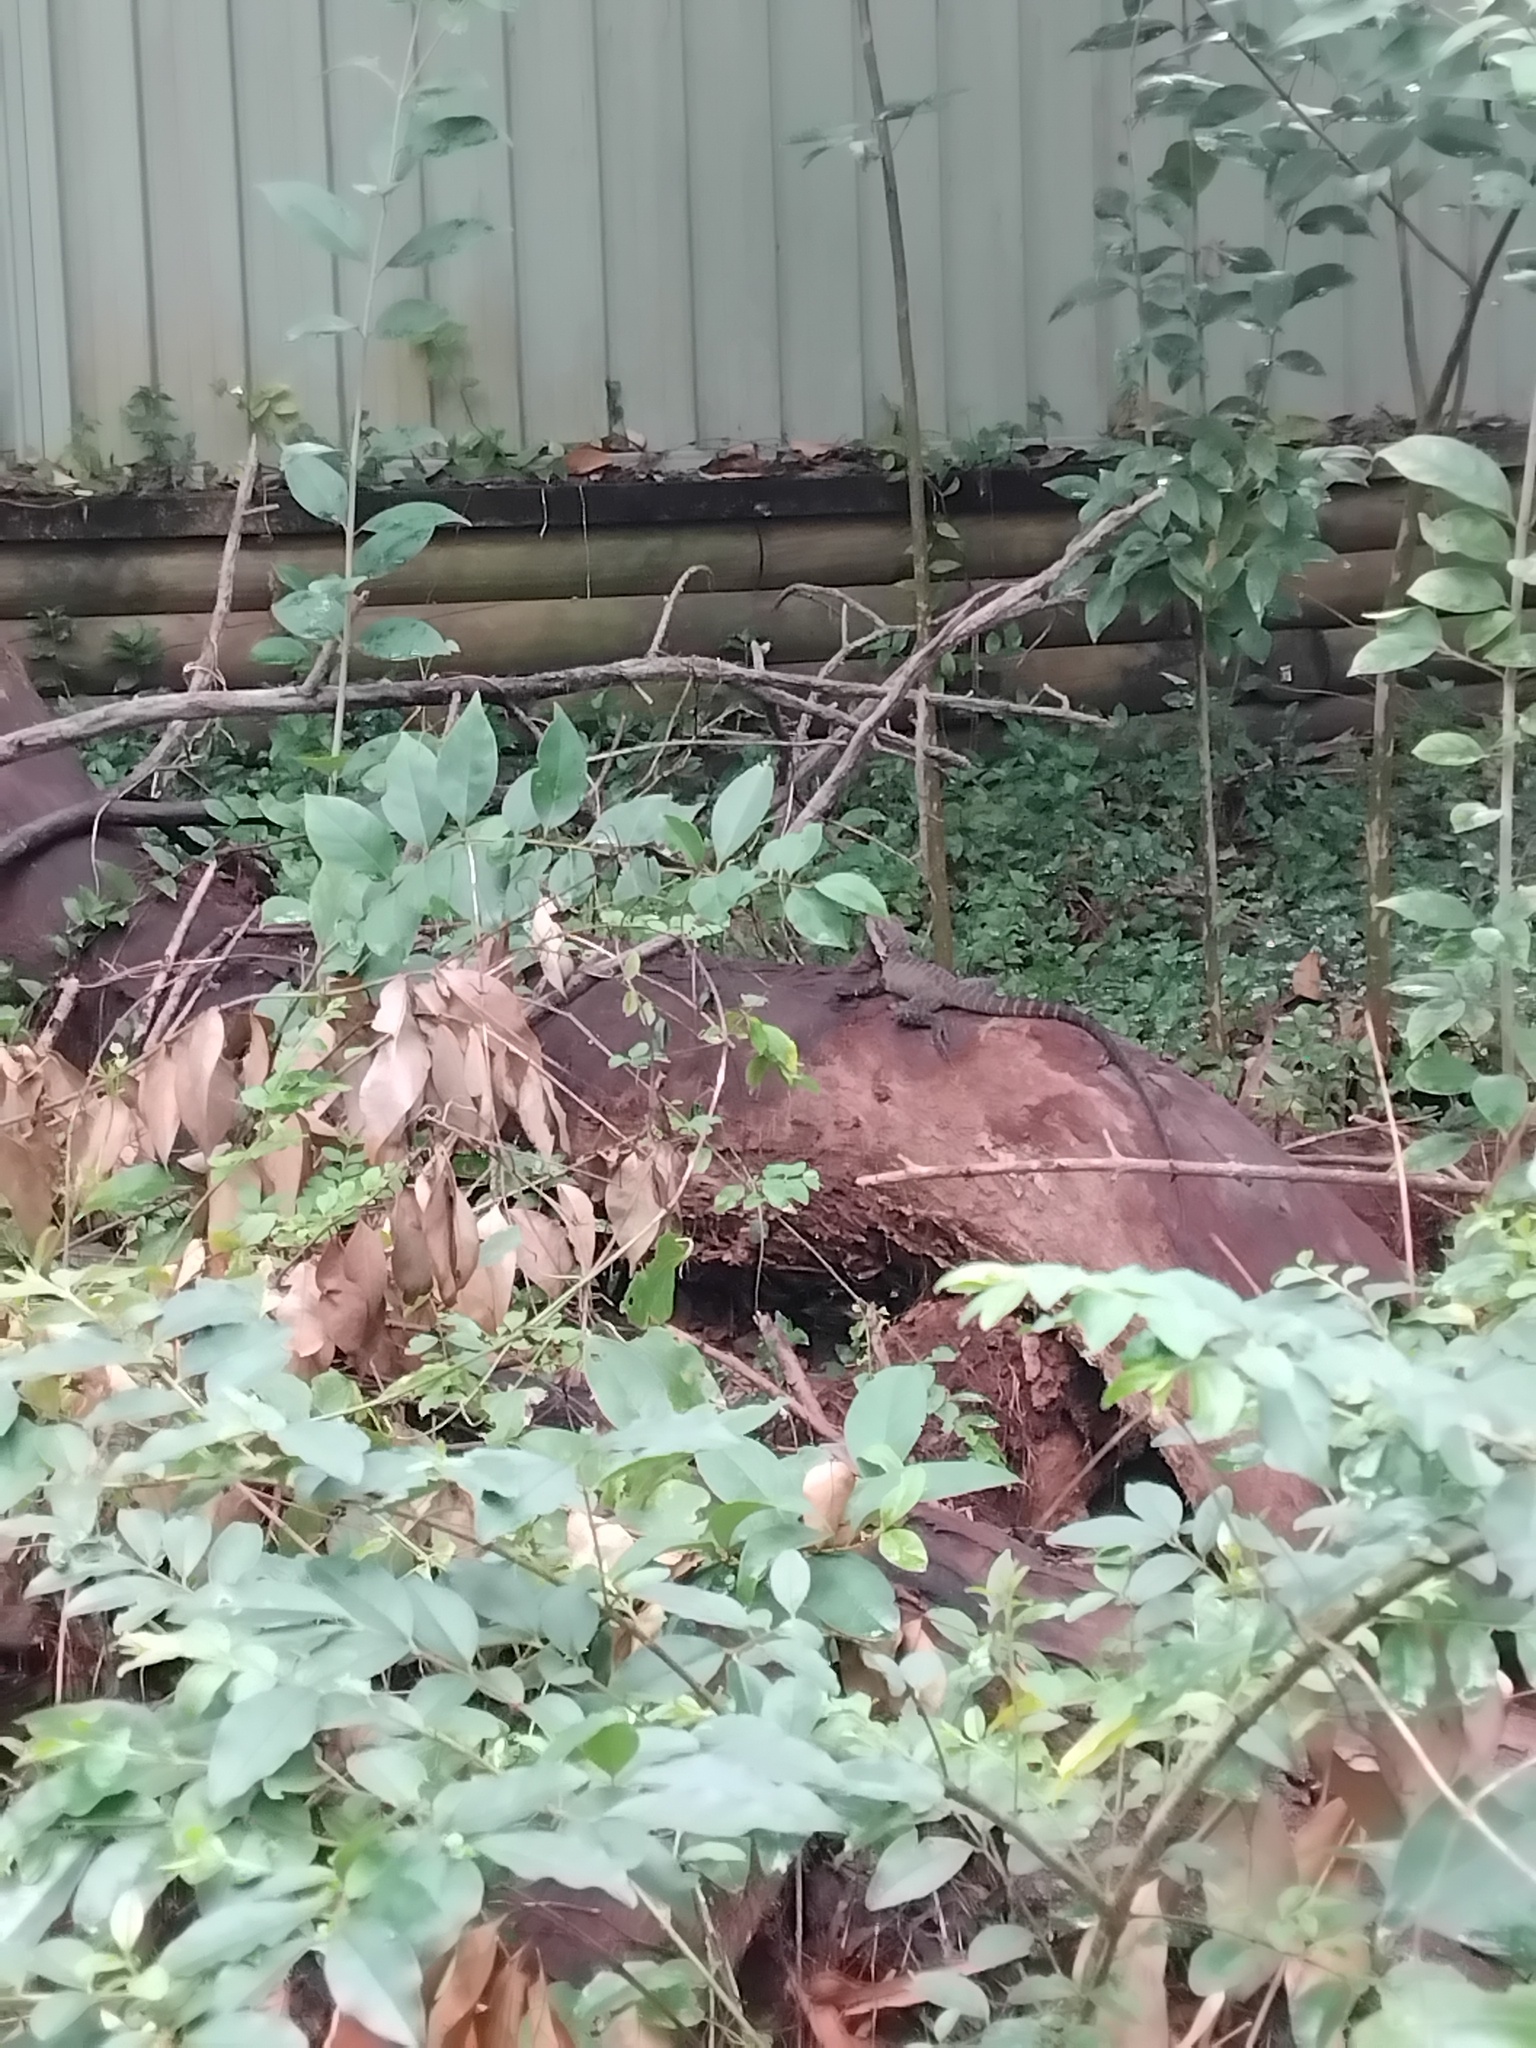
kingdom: Animalia
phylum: Chordata
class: Squamata
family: Agamidae
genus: Intellagama
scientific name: Intellagama lesueurii
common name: Eastern water dragon
